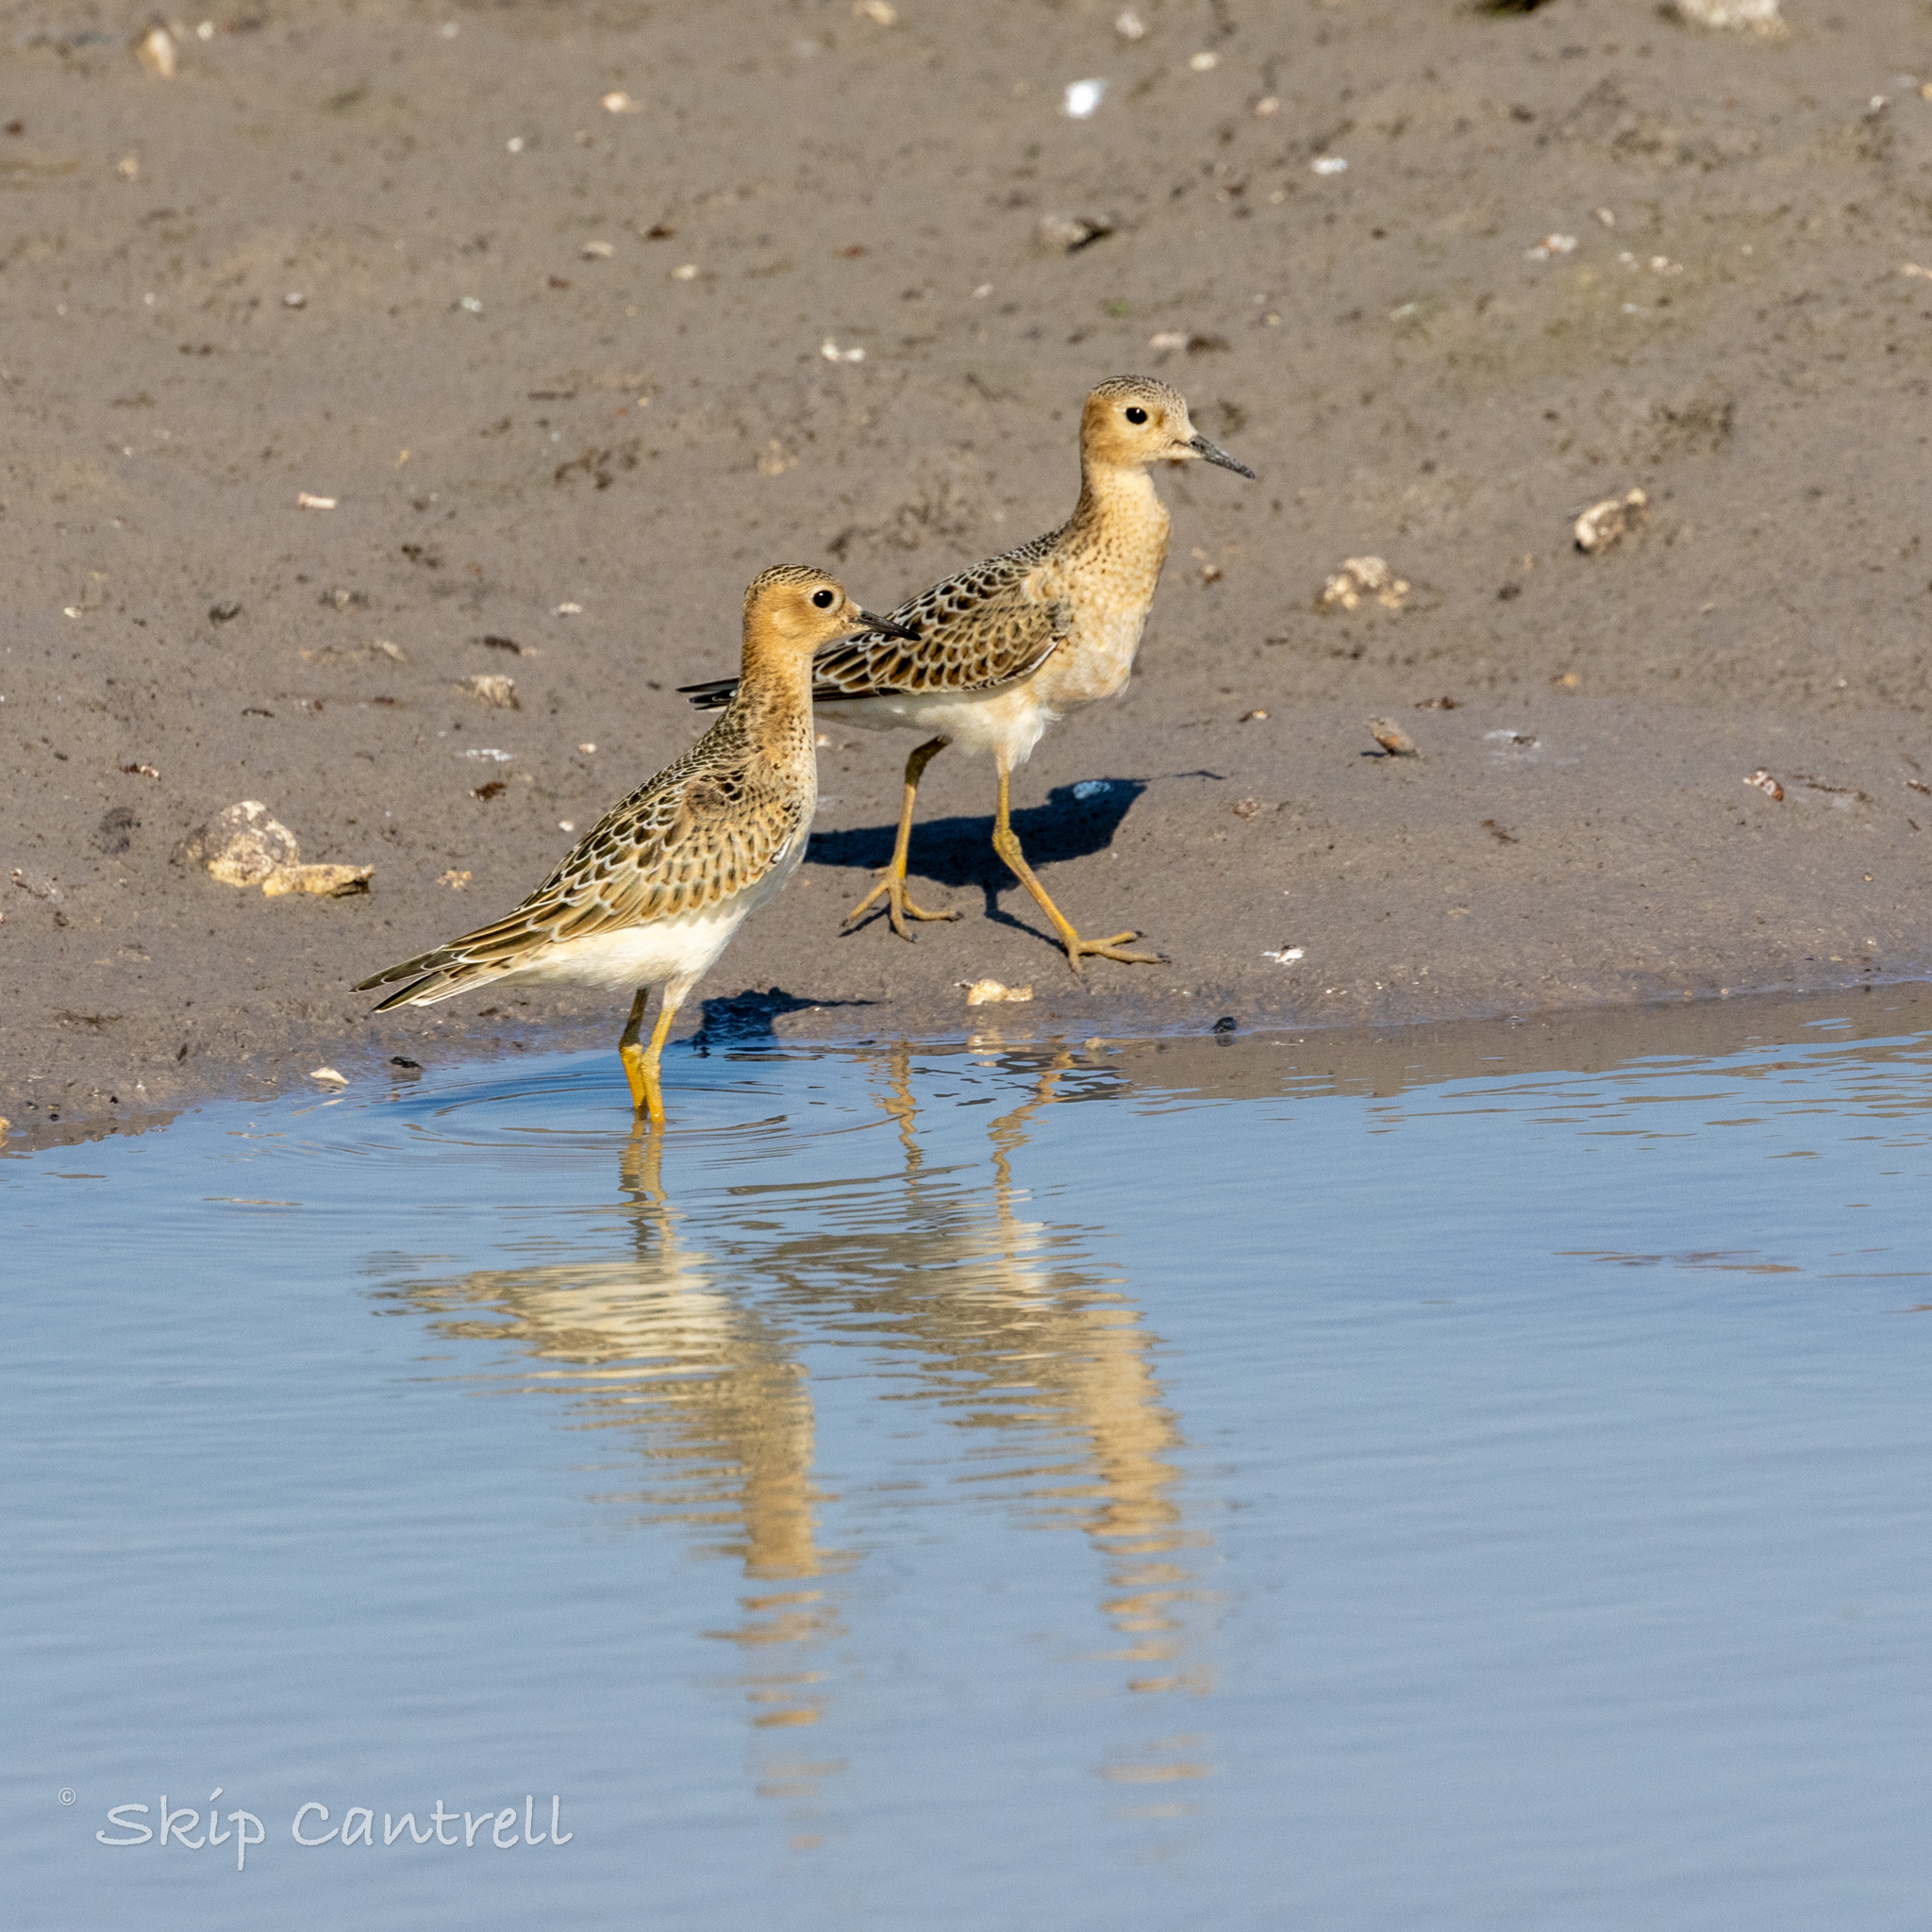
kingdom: Animalia
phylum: Chordata
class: Aves
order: Charadriiformes
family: Scolopacidae
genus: Calidris
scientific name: Calidris subruficollis
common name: Buff-breasted sandpiper
